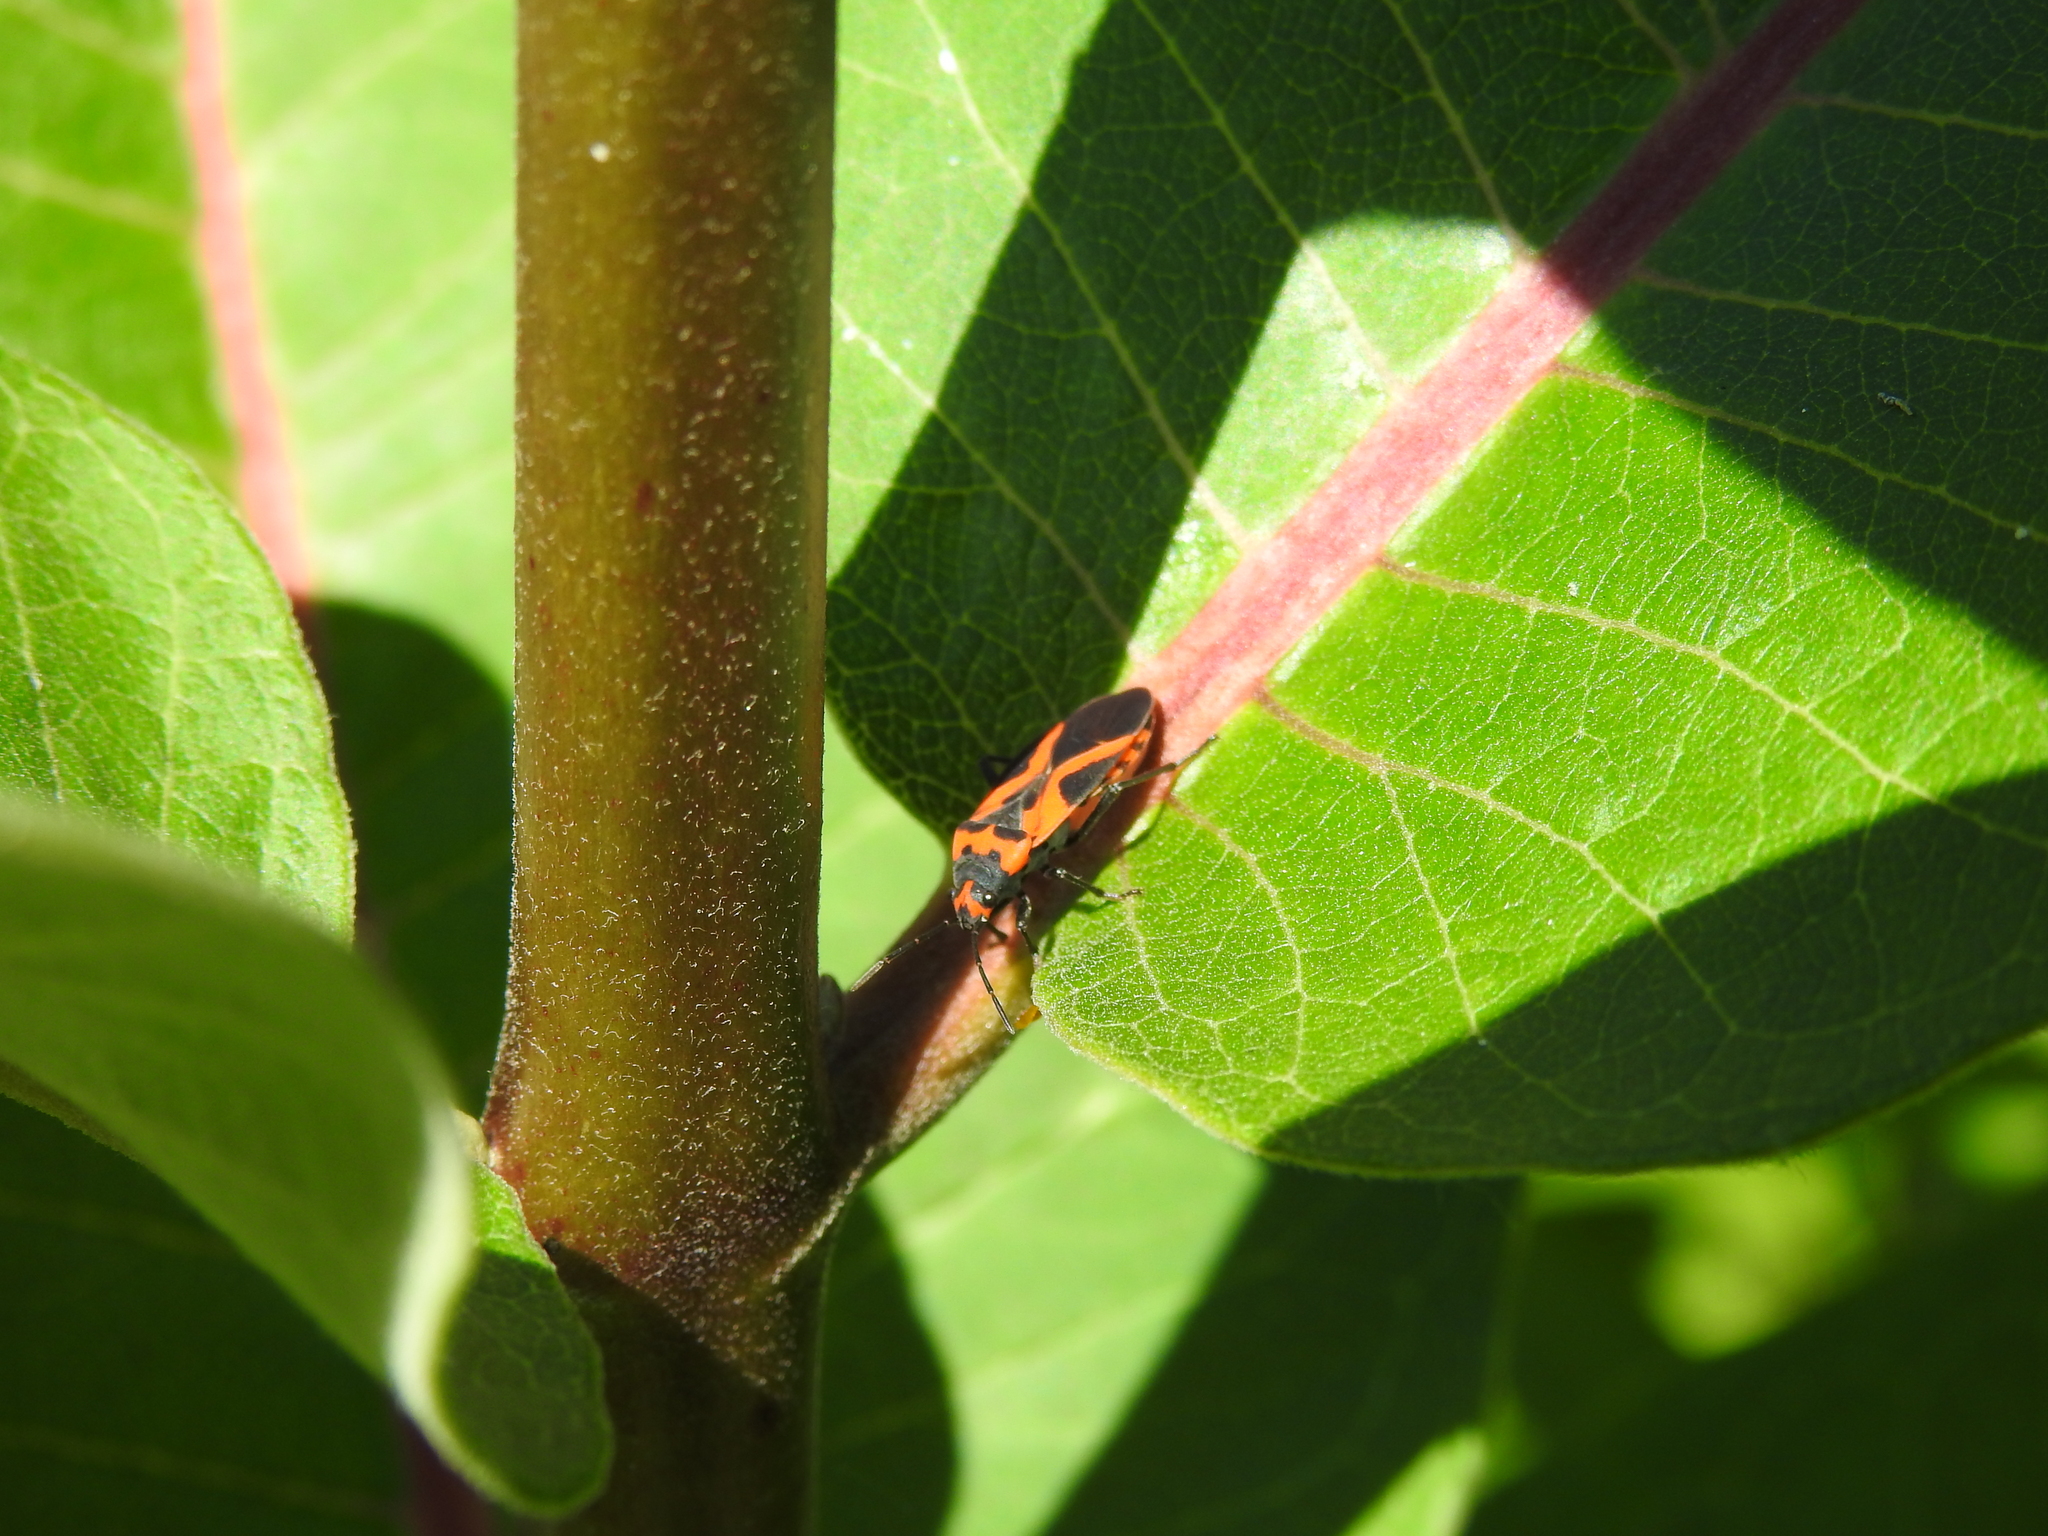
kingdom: Animalia
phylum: Arthropoda
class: Insecta
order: Hemiptera
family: Lygaeidae
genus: Lygaeus
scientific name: Lygaeus turcicus
